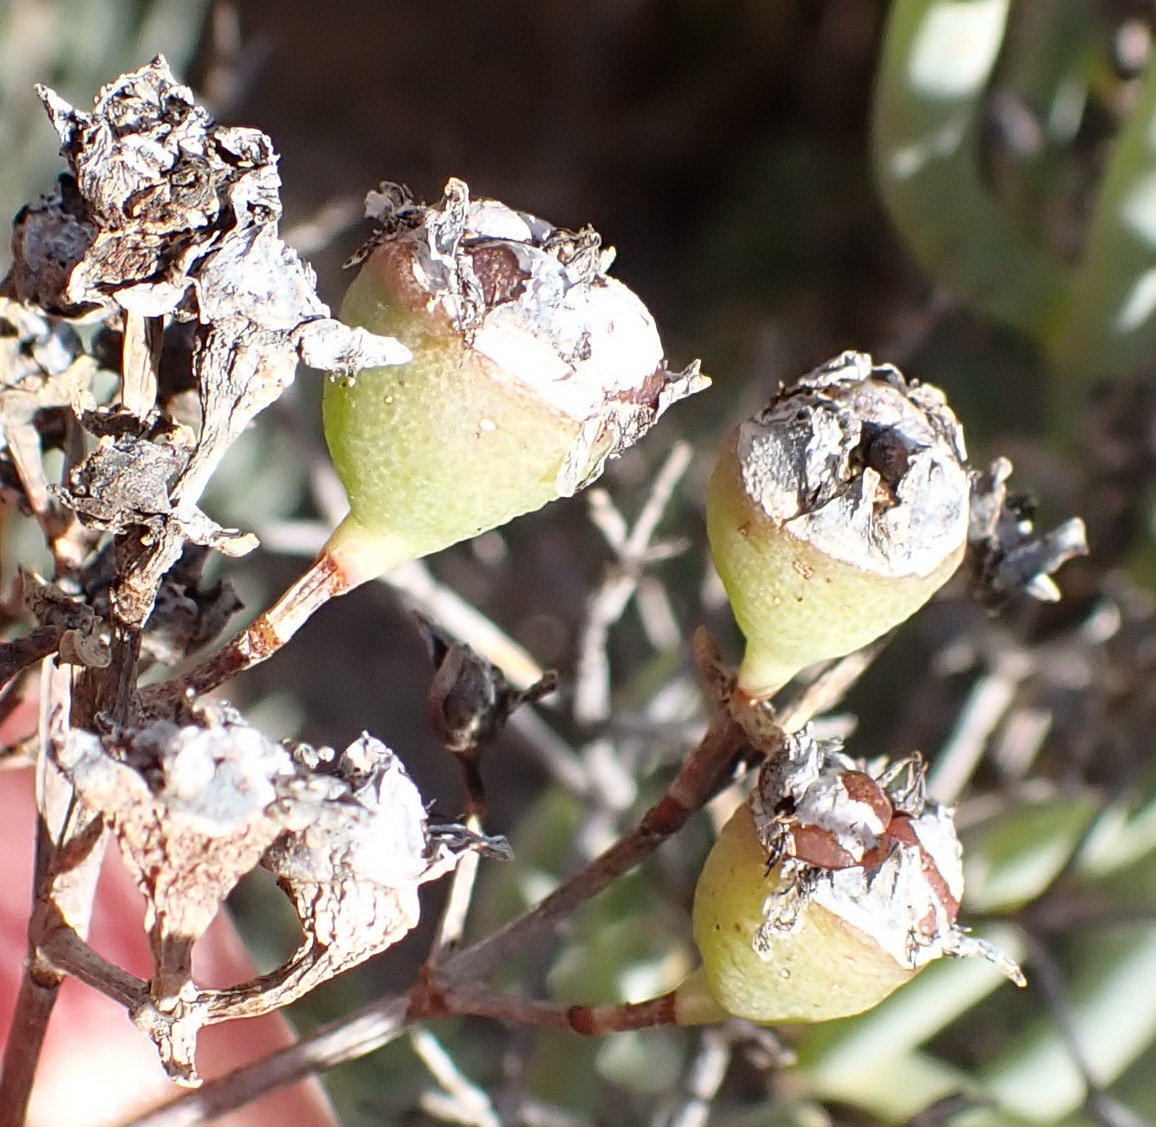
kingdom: Plantae
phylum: Tracheophyta
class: Magnoliopsida
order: Caryophyllales
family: Aizoaceae
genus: Ruschia
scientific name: Ruschia pungens
